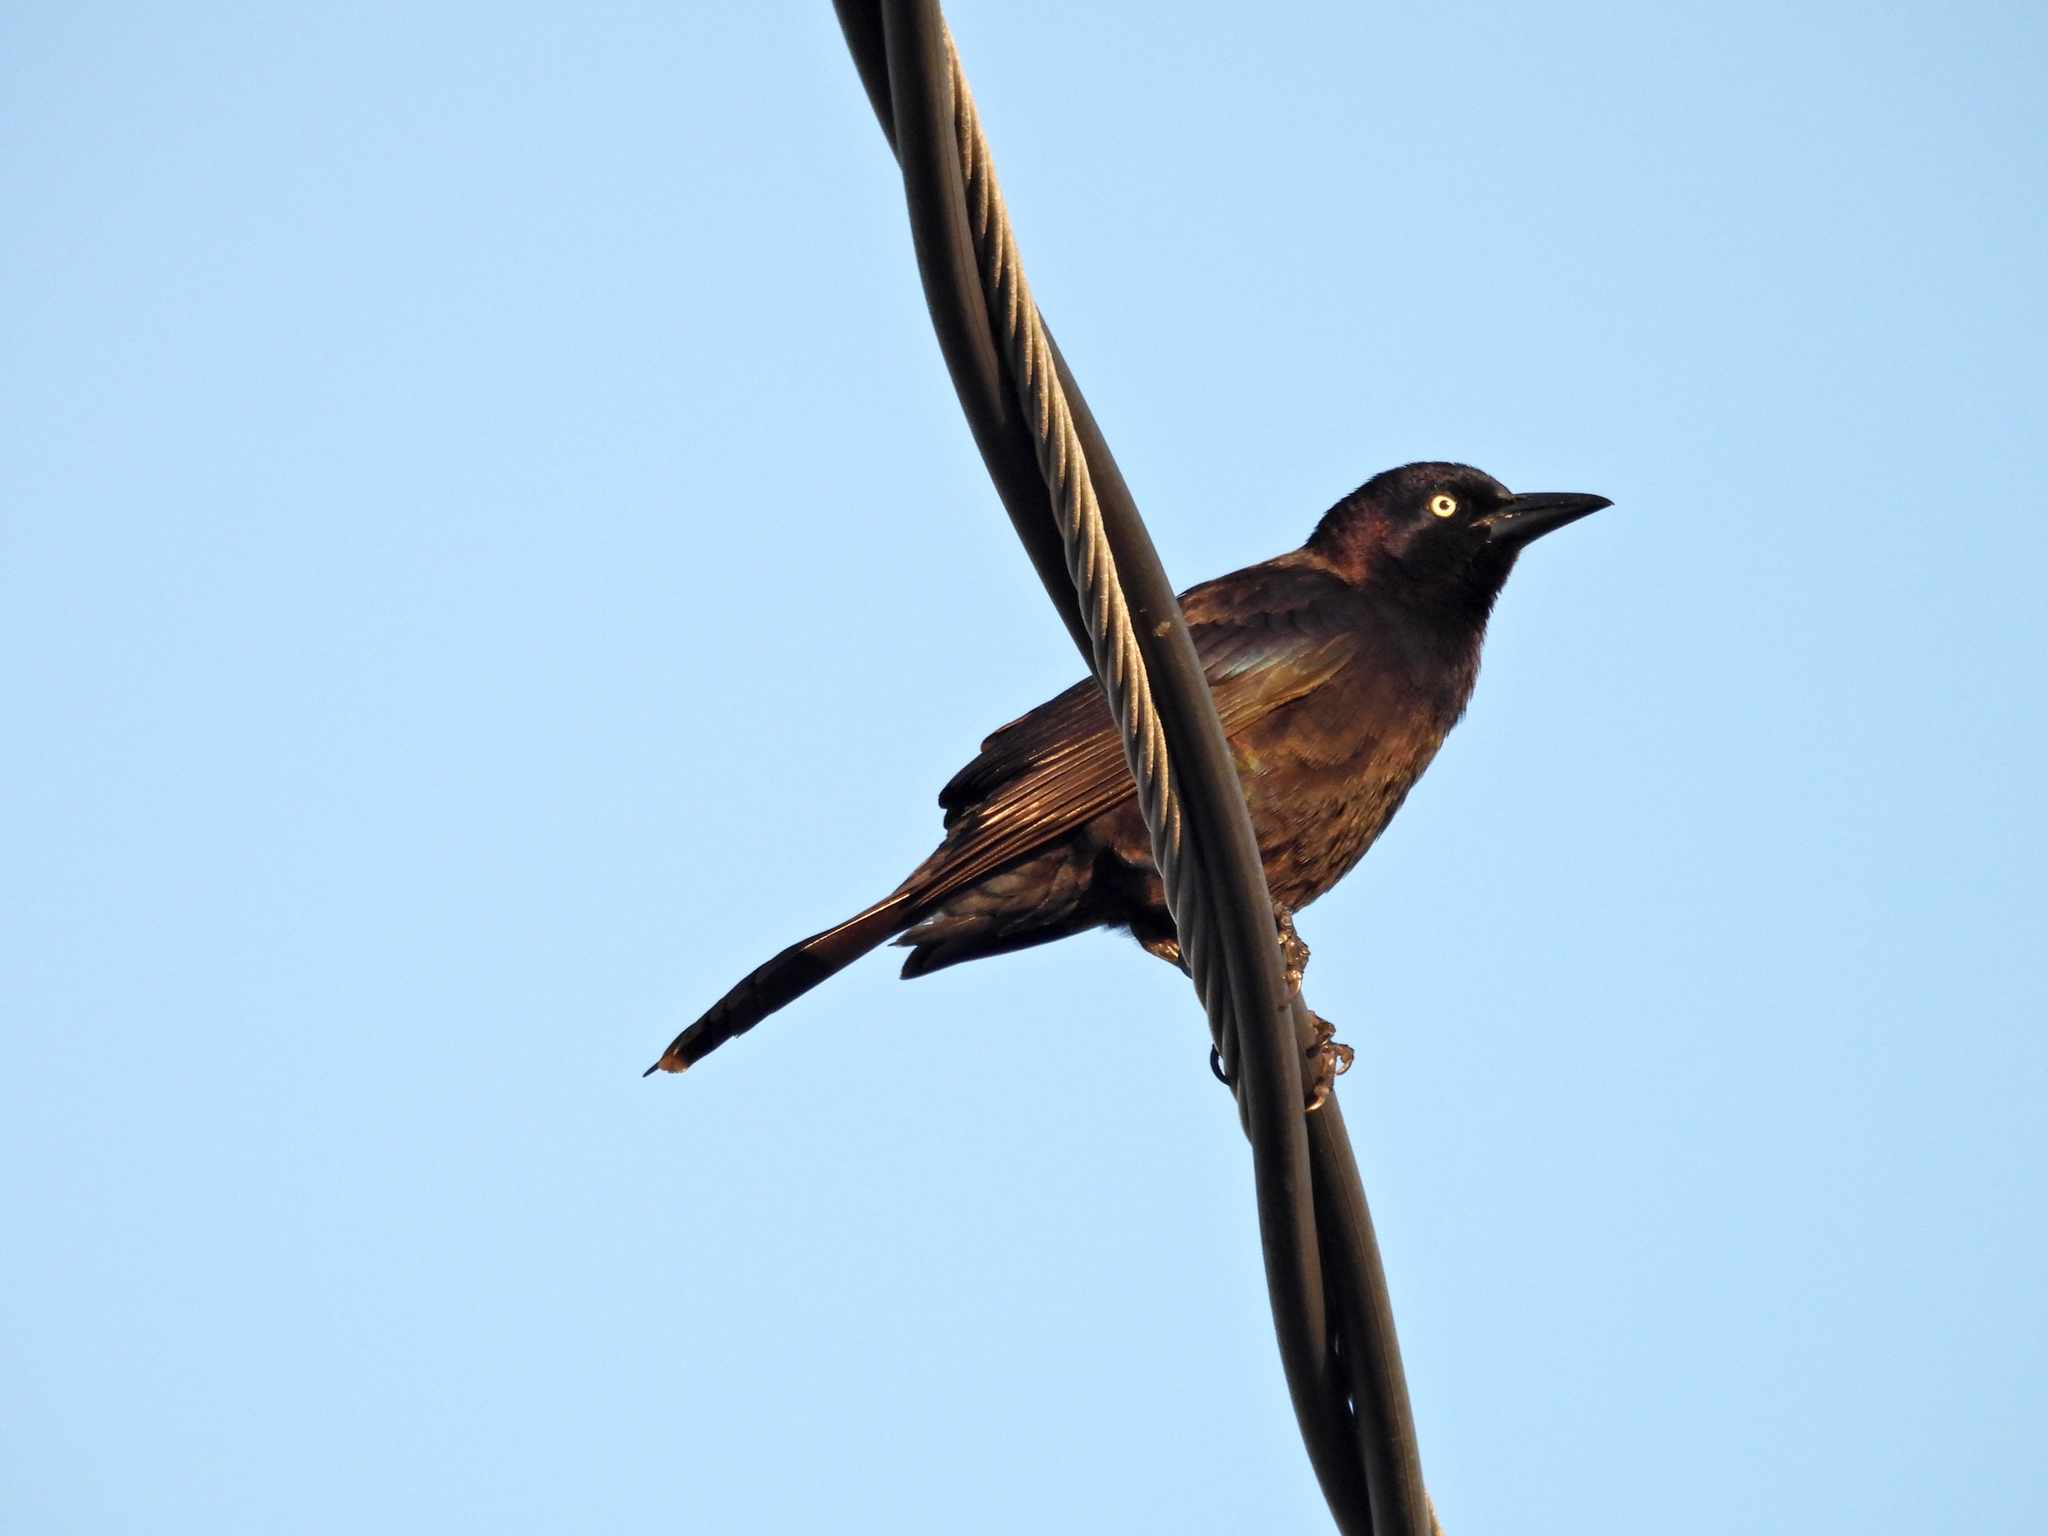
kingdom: Animalia
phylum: Chordata
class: Aves
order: Passeriformes
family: Icteridae
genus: Quiscalus
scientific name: Quiscalus quiscula
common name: Common grackle
